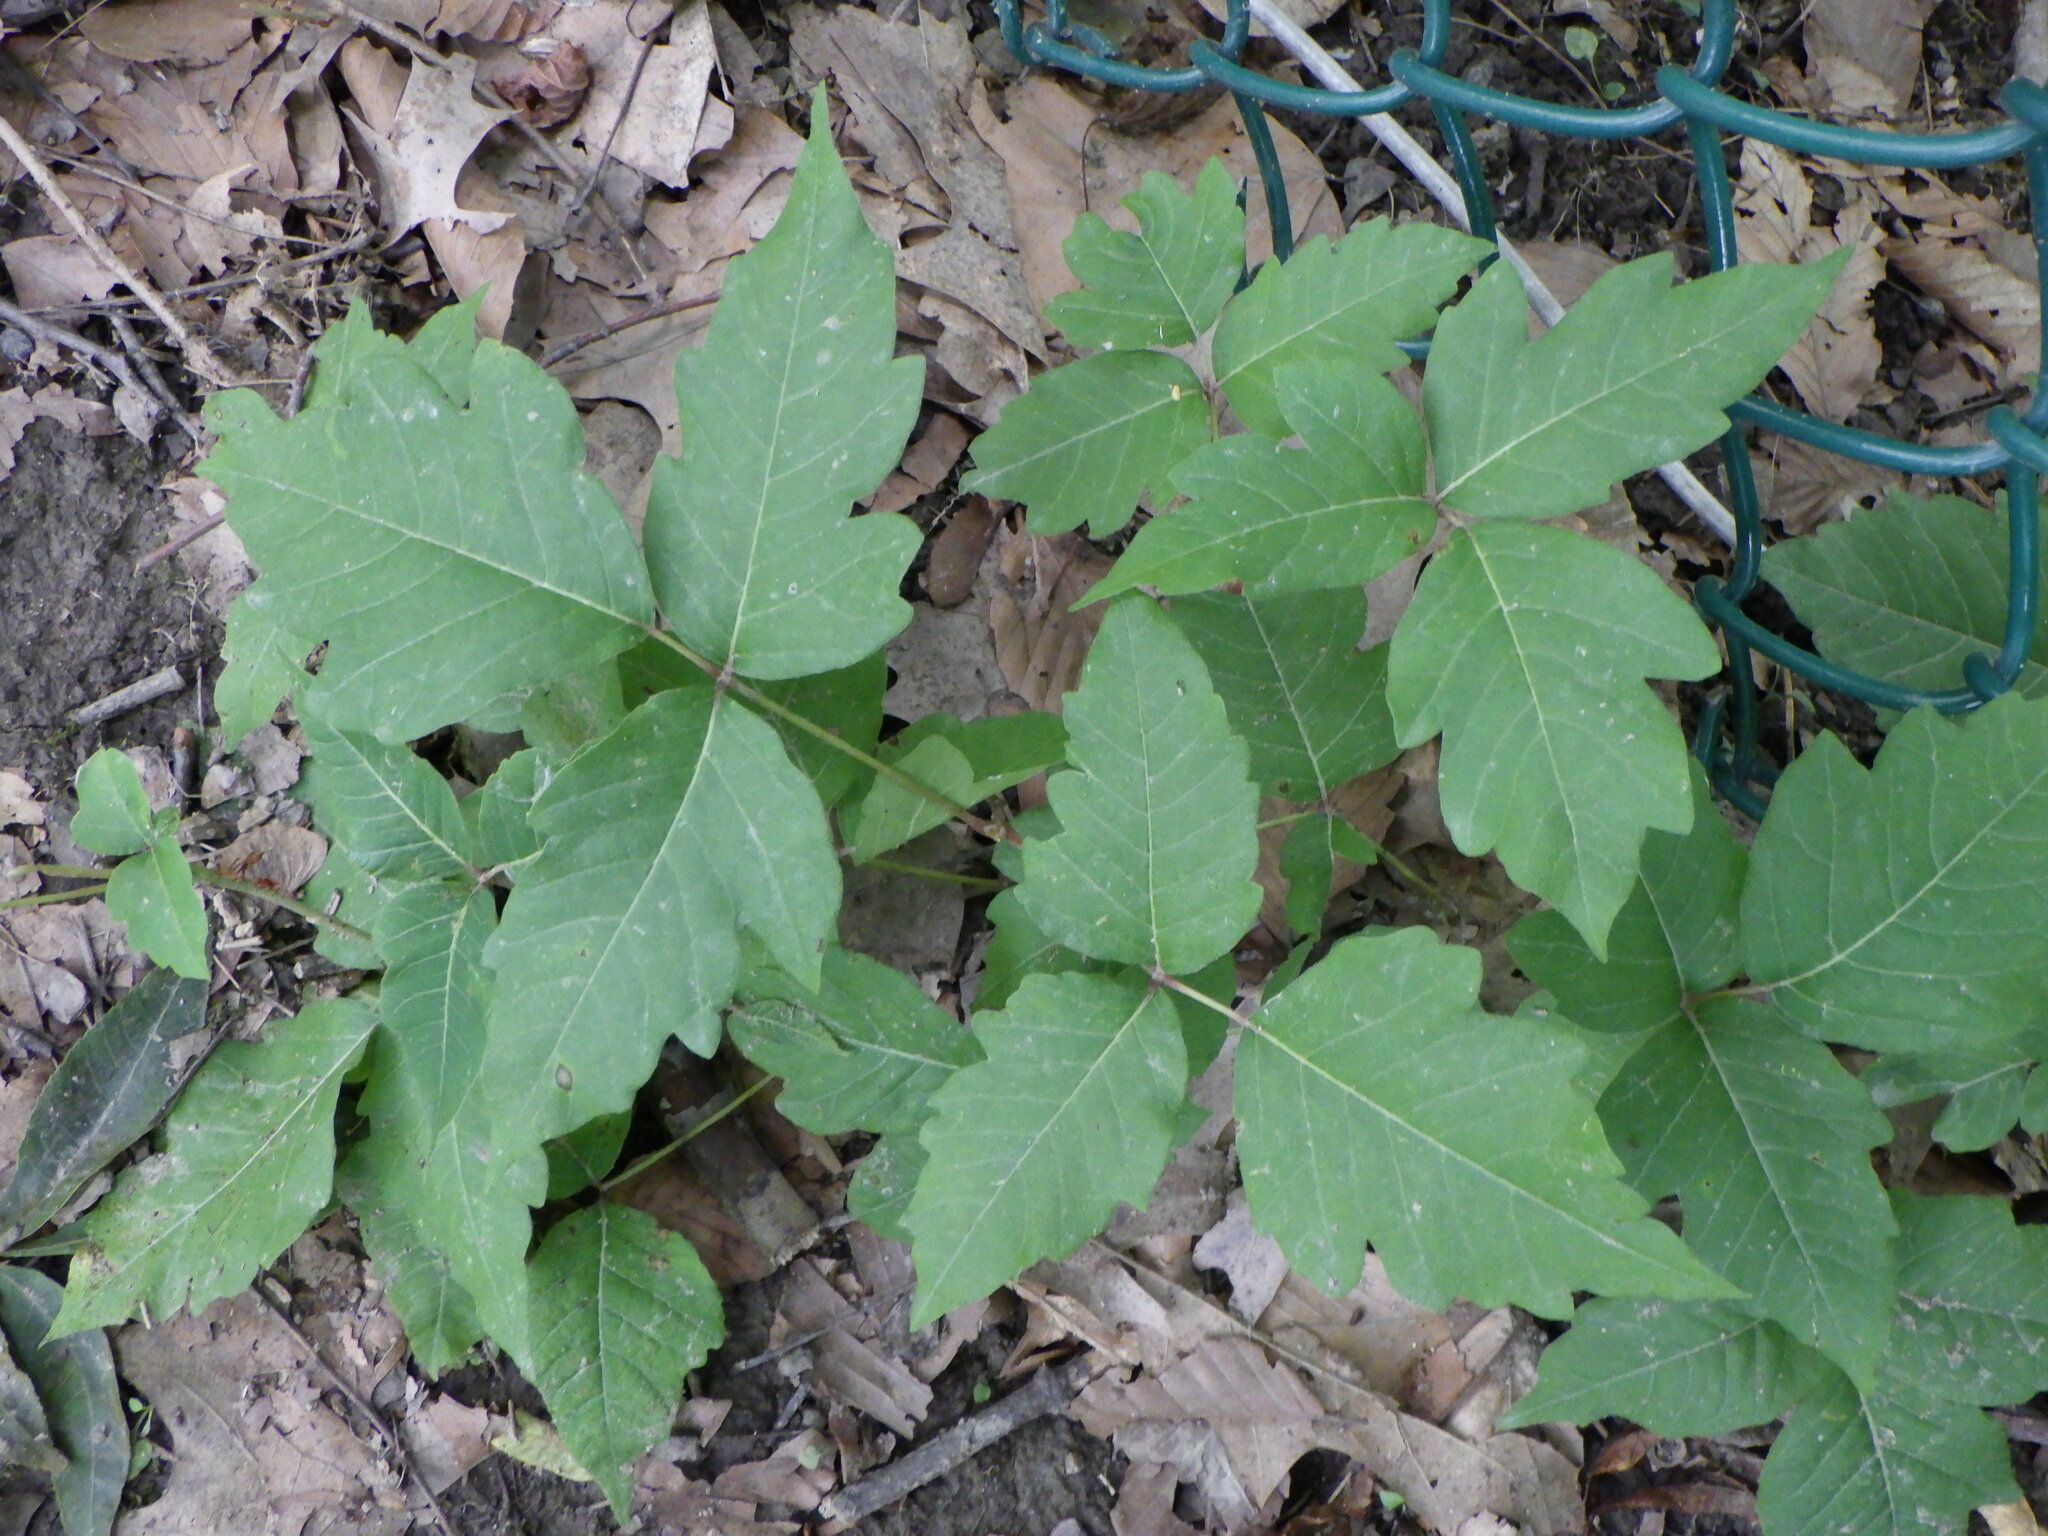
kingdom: Plantae
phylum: Tracheophyta
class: Magnoliopsida
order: Sapindales
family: Anacardiaceae
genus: Toxicodendron
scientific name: Toxicodendron radicans
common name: Poison ivy
